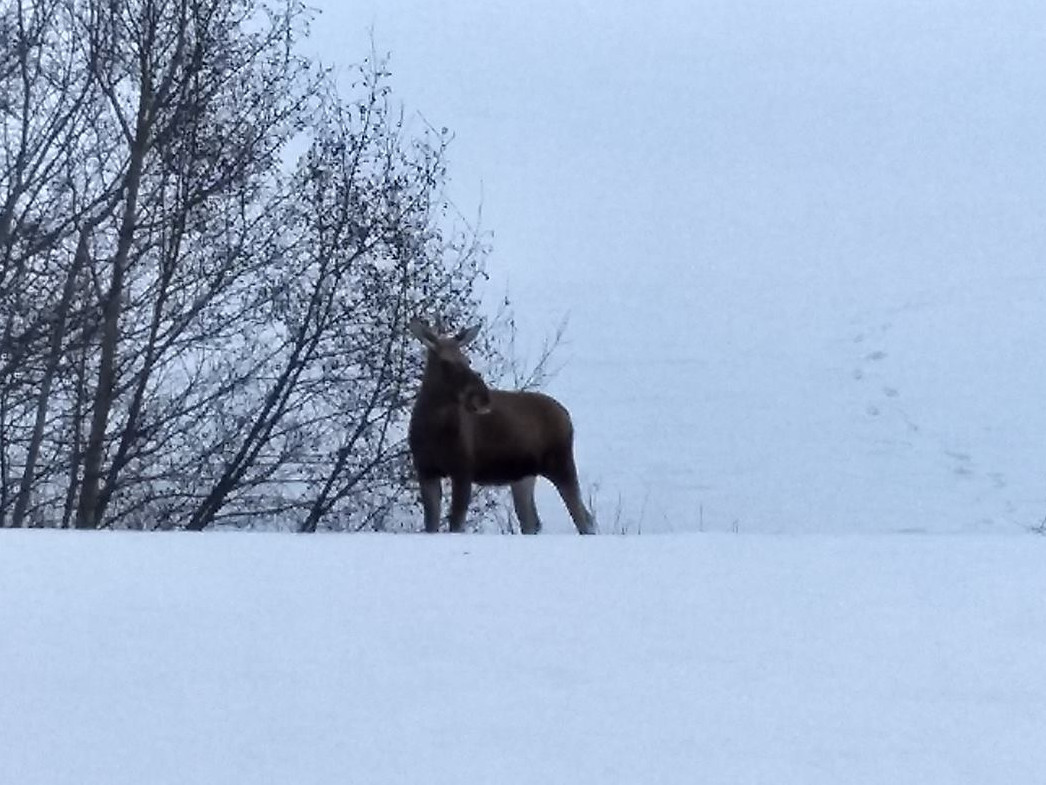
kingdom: Animalia
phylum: Chordata
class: Mammalia
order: Artiodactyla
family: Cervidae
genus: Alces
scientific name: Alces alces
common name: Moose
